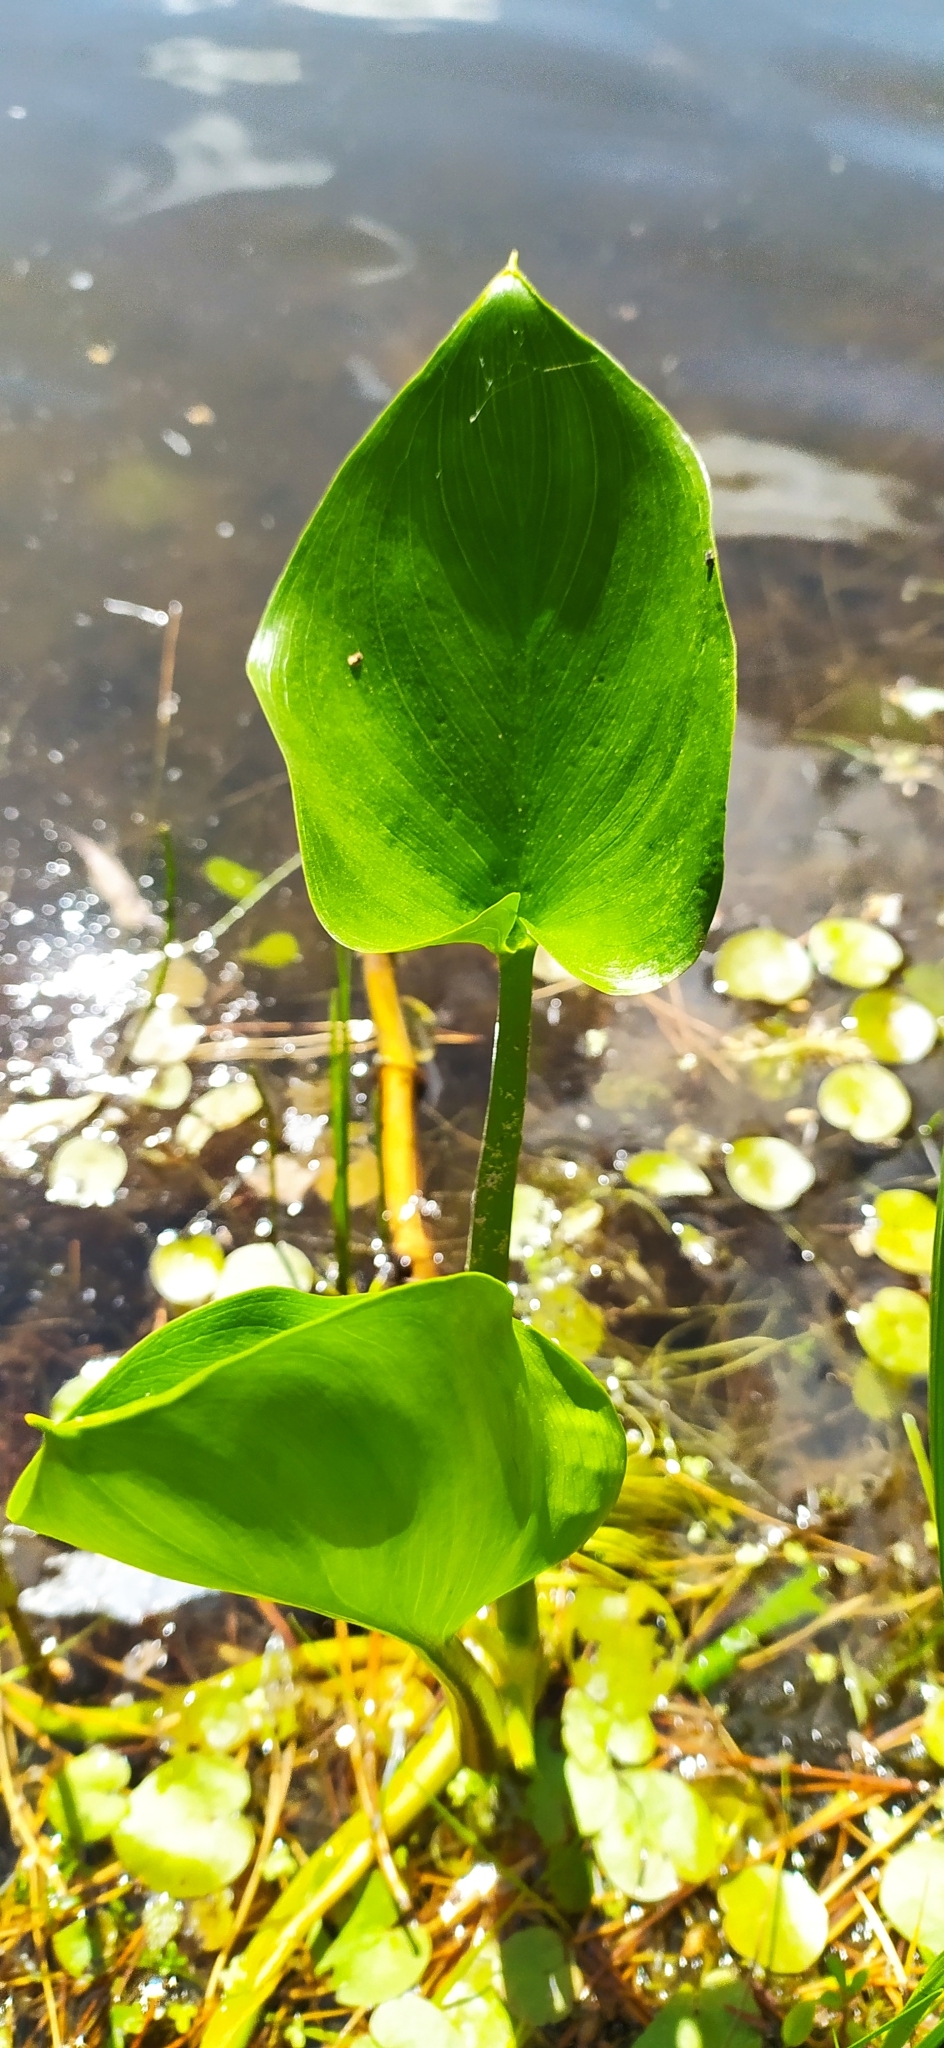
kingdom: Plantae
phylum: Tracheophyta
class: Liliopsida
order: Alismatales
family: Araceae
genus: Calla
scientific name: Calla palustris
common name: Bog arum
